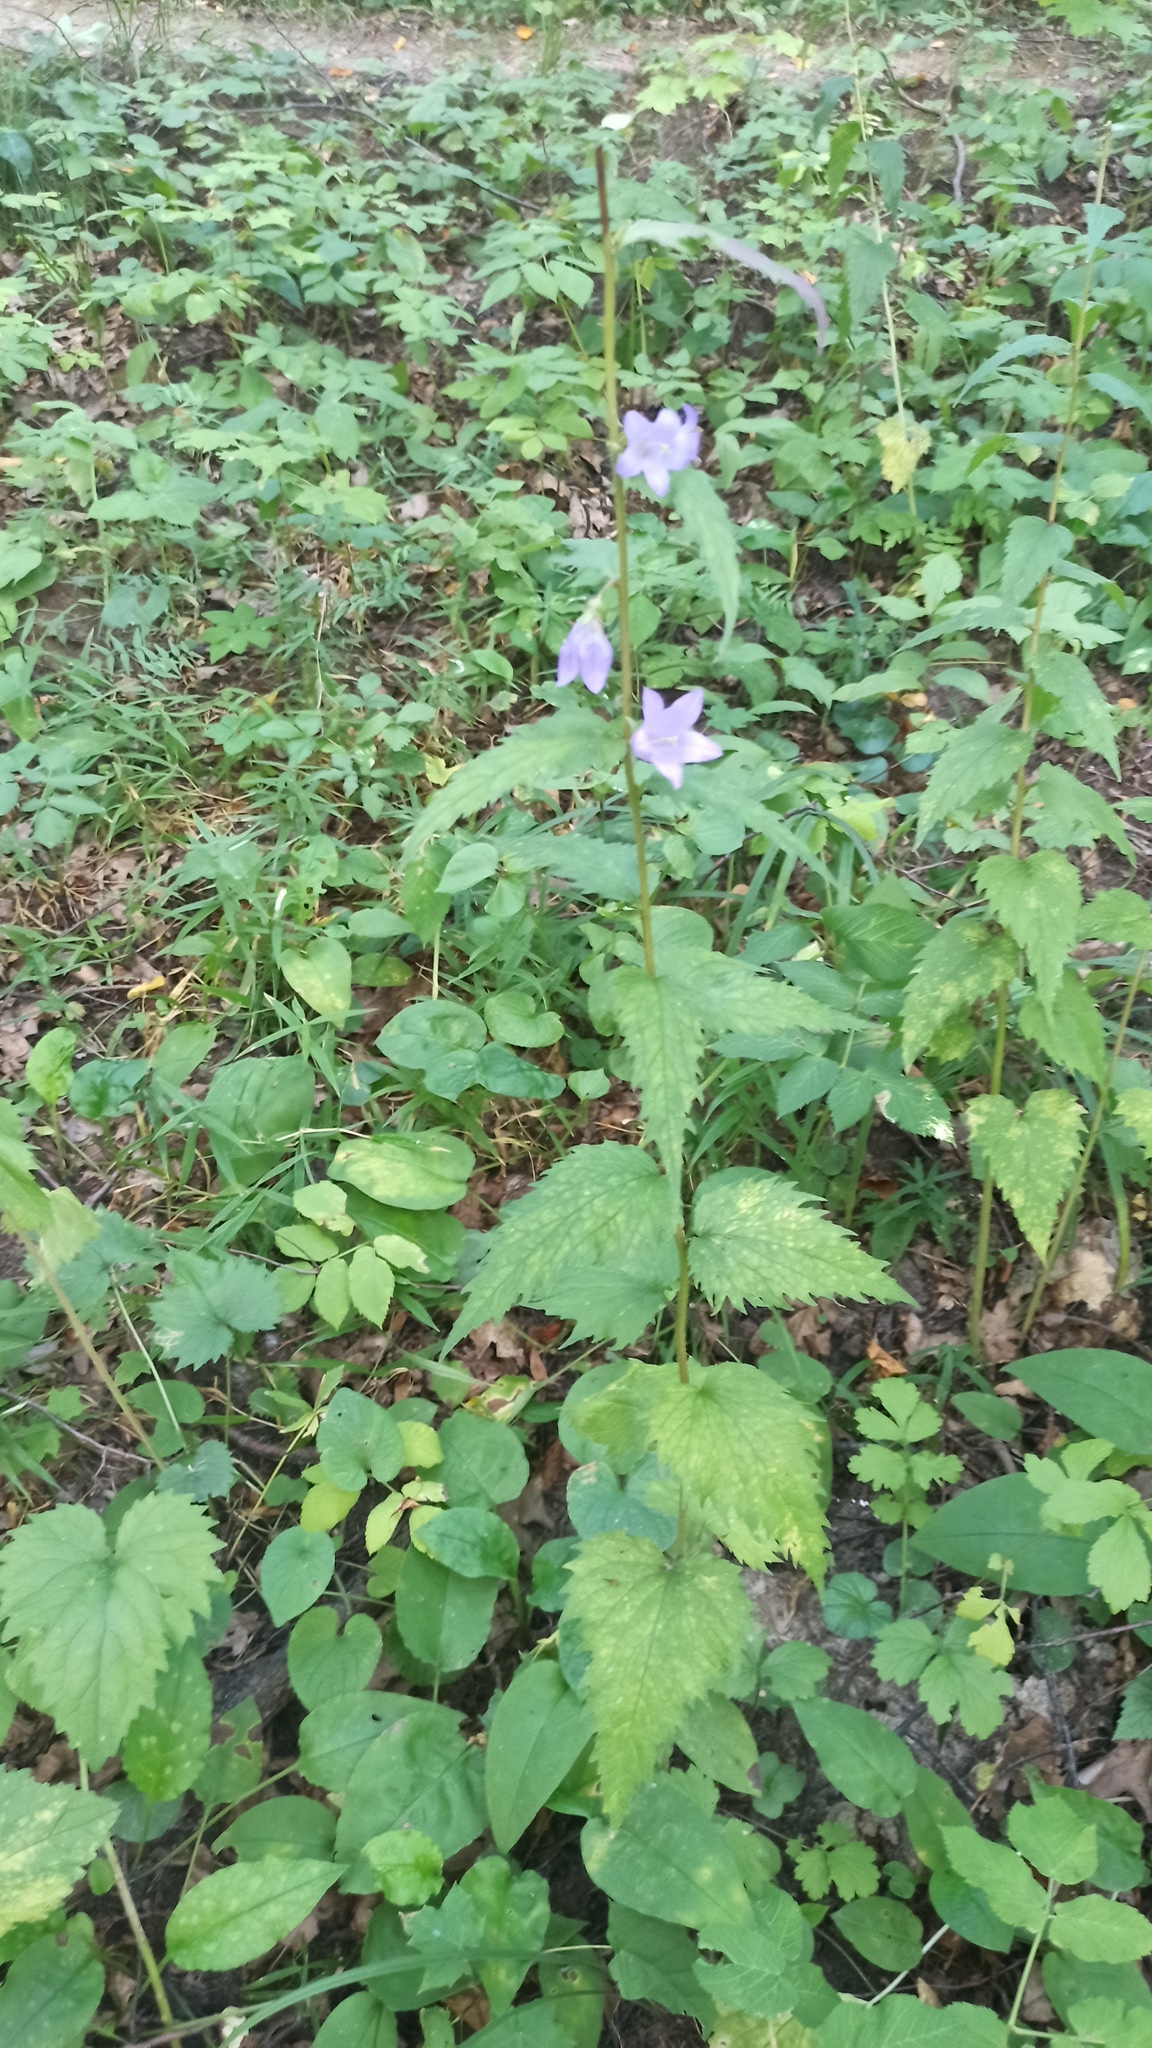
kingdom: Plantae
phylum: Tracheophyta
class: Magnoliopsida
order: Asterales
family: Campanulaceae
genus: Campanula
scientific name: Campanula trachelium
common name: Nettle-leaved bellflower
